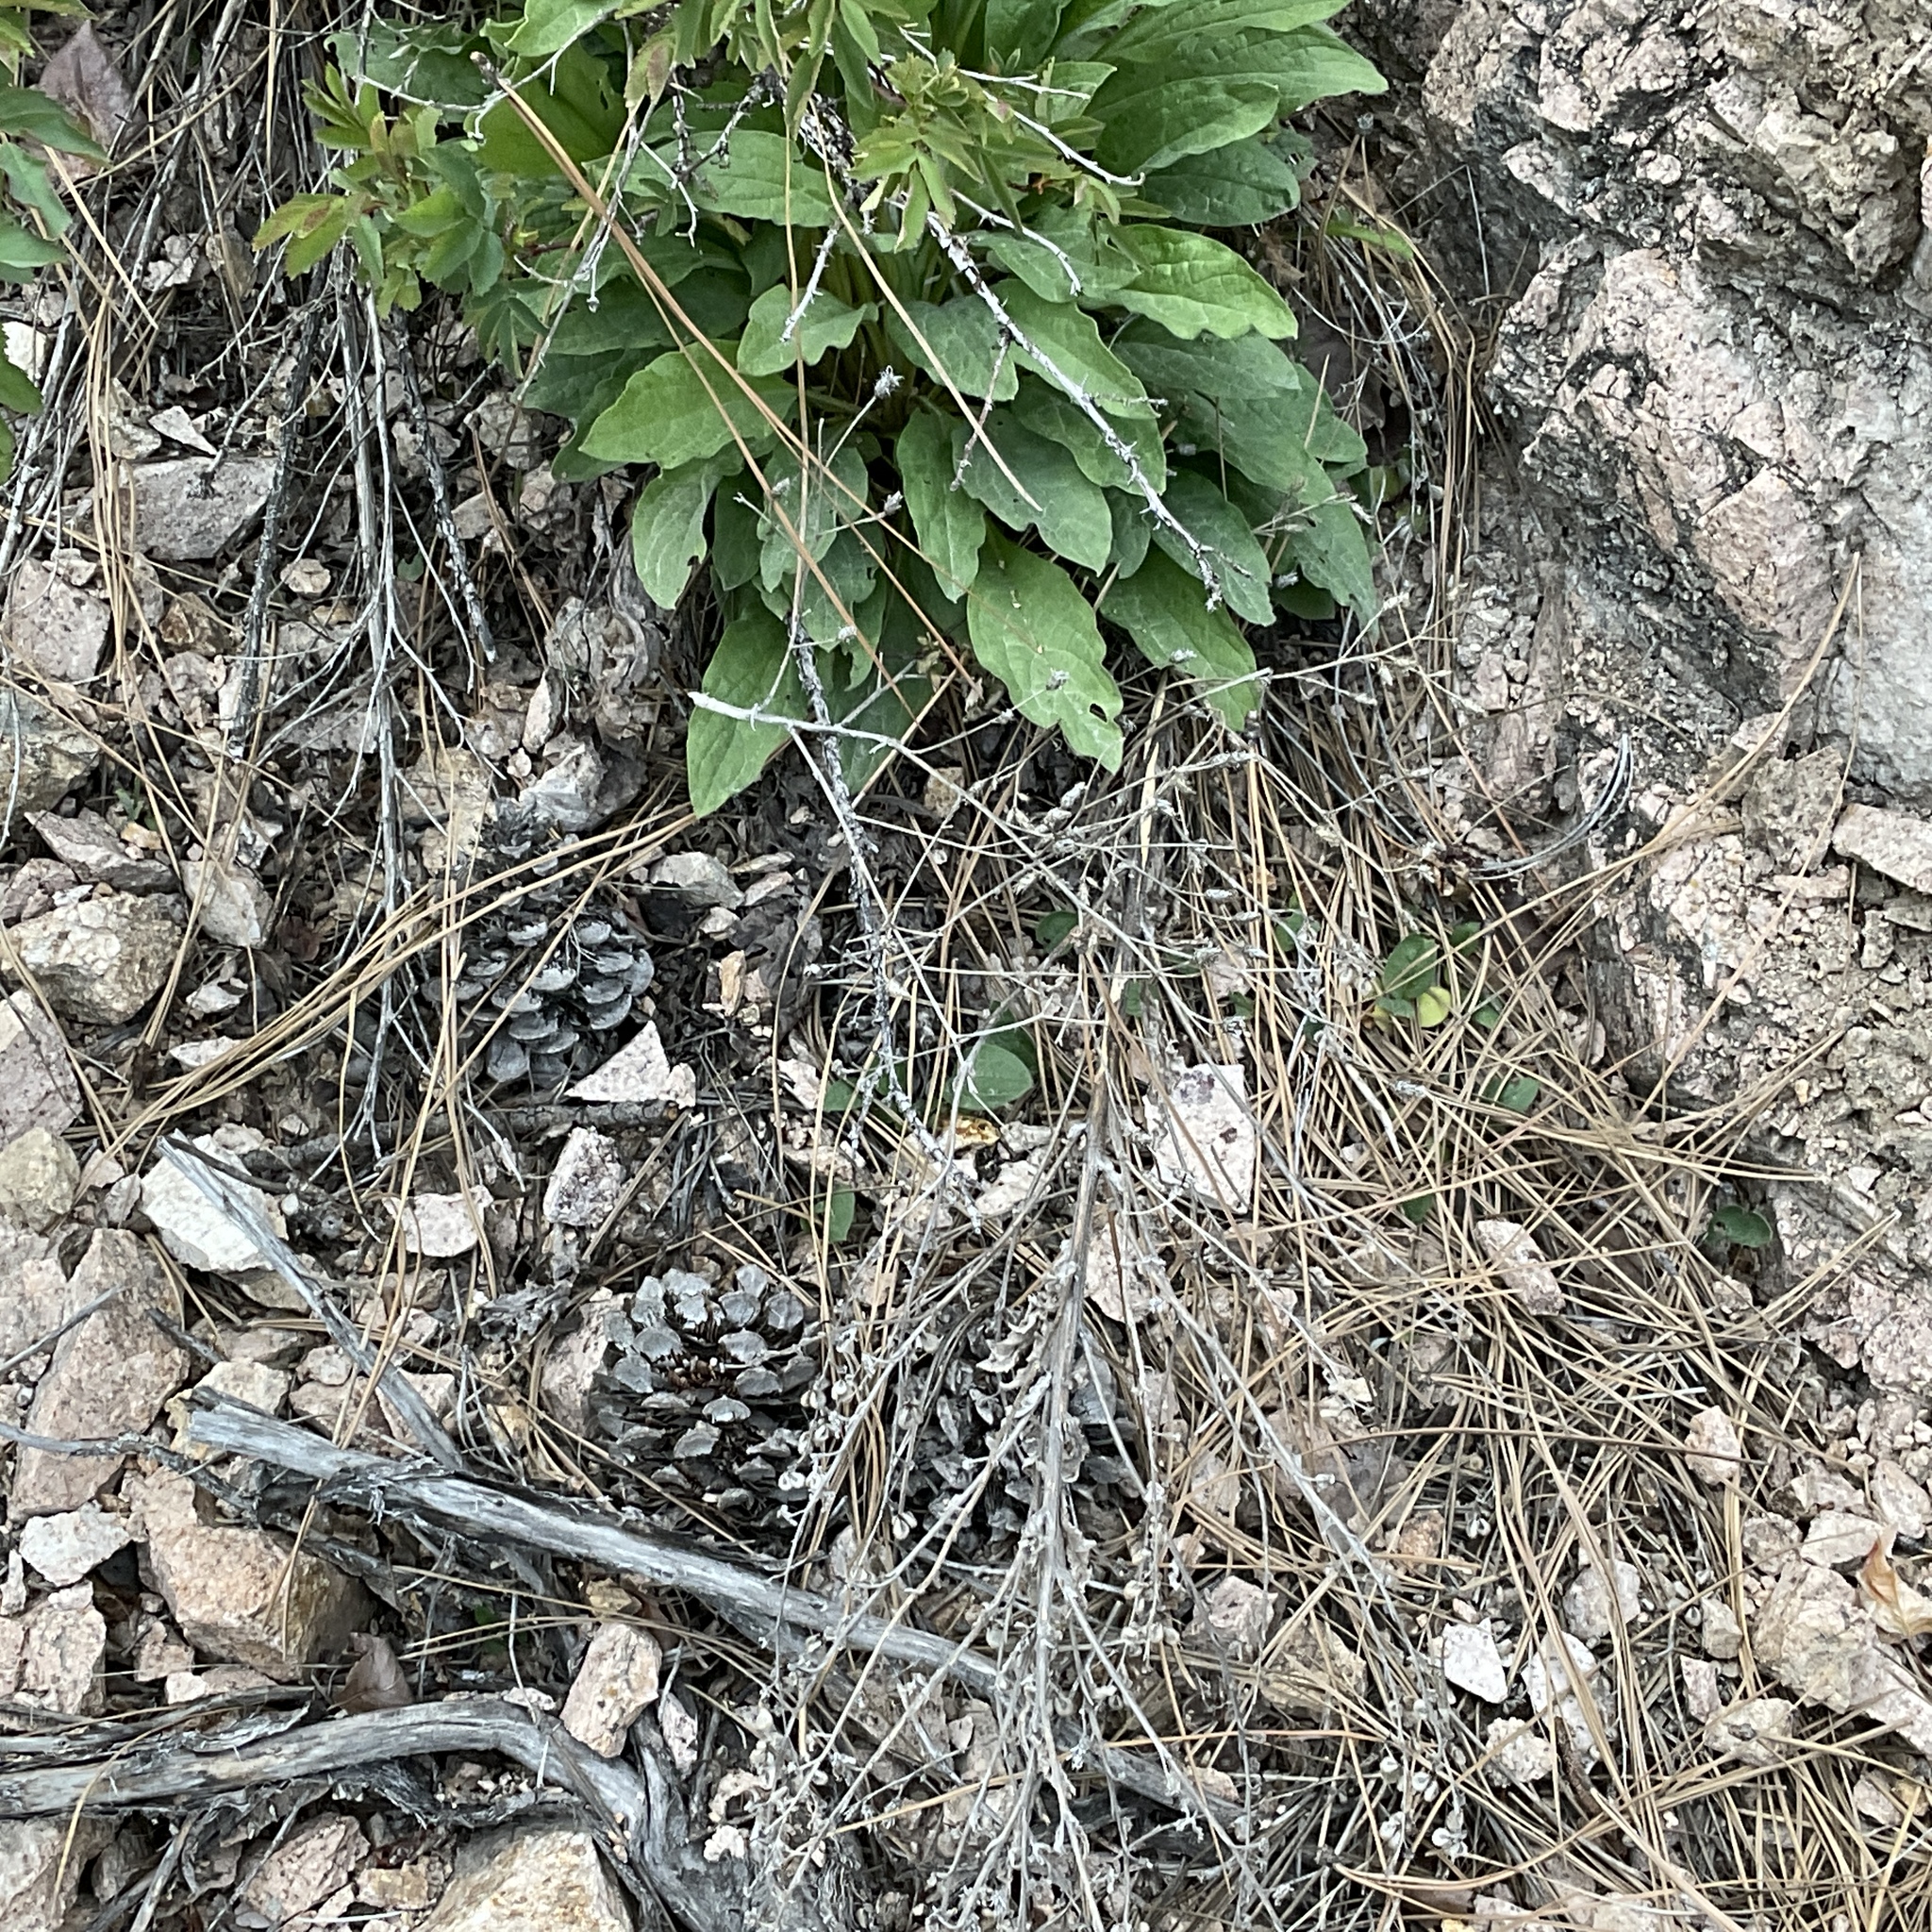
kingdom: Plantae
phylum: Tracheophyta
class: Magnoliopsida
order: Boraginales
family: Boraginaceae
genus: Cynoglossum
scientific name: Cynoglossum officinale
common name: Hound's-tongue
